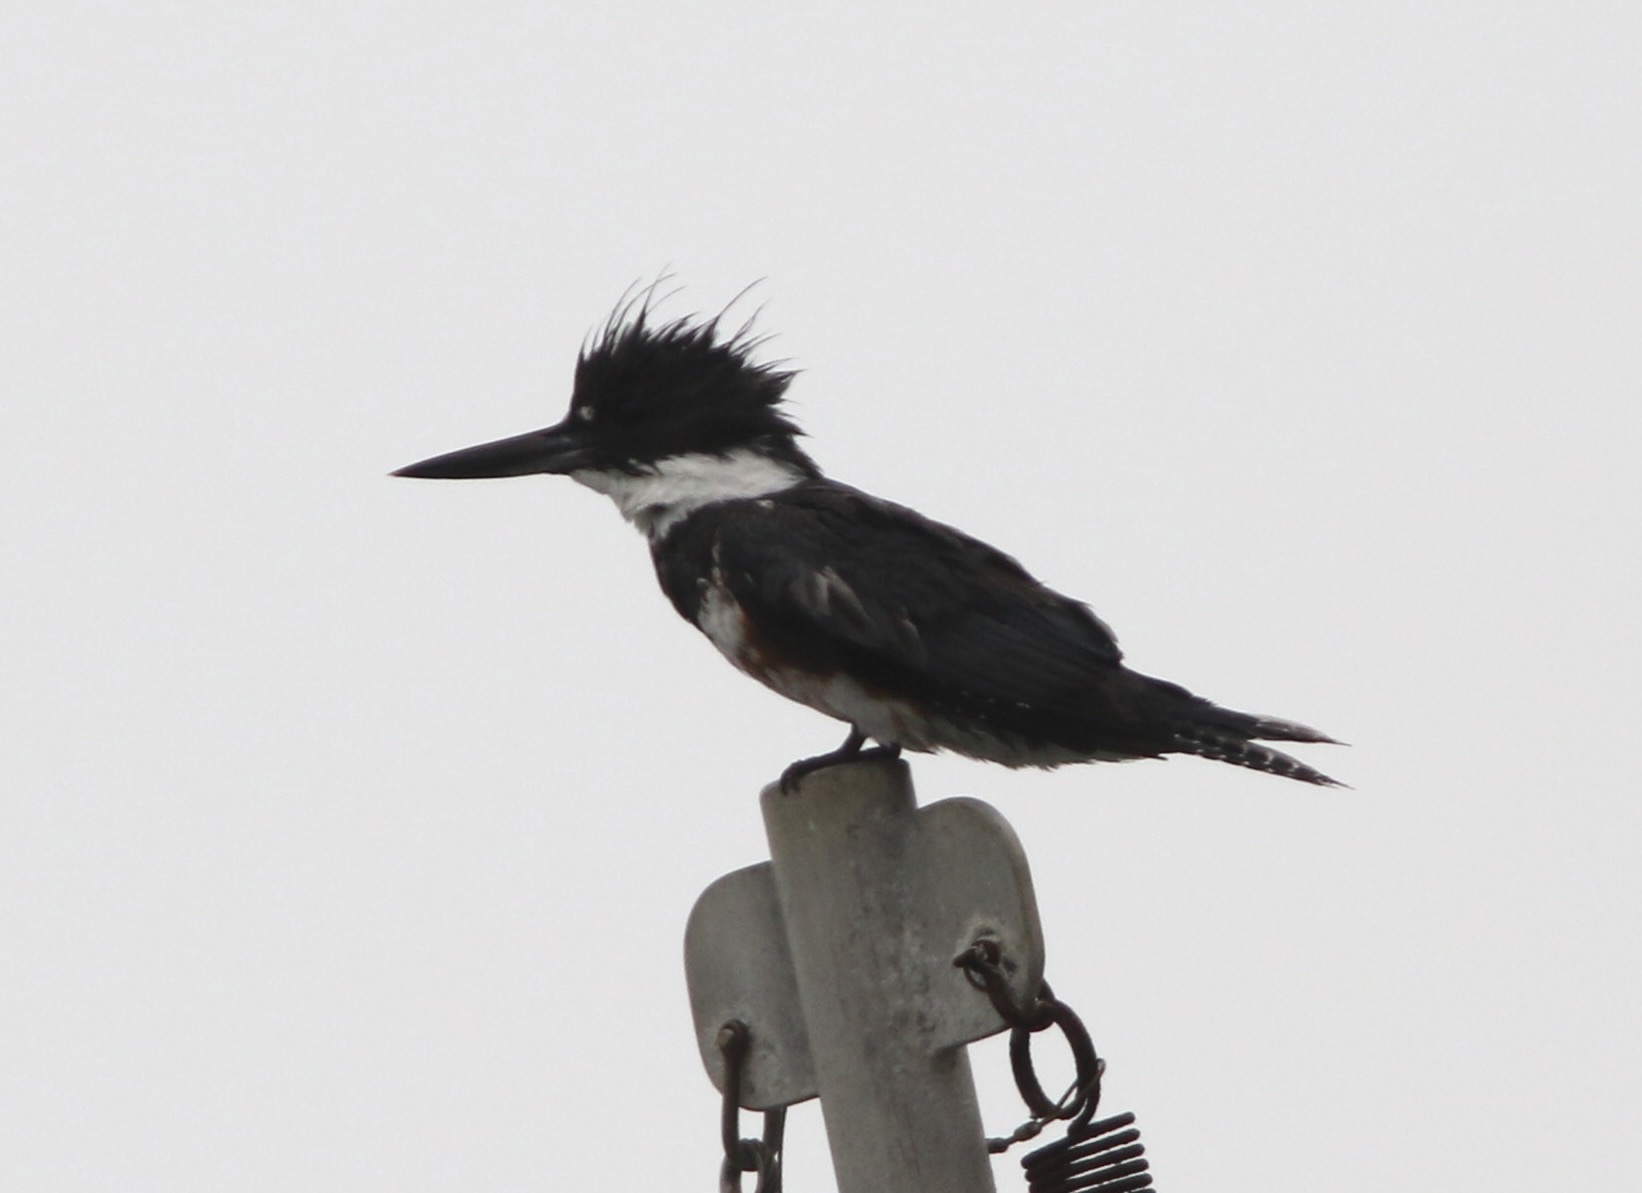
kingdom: Animalia
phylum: Chordata
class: Aves
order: Coraciiformes
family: Alcedinidae
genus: Megaceryle
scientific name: Megaceryle alcyon
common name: Belted kingfisher
